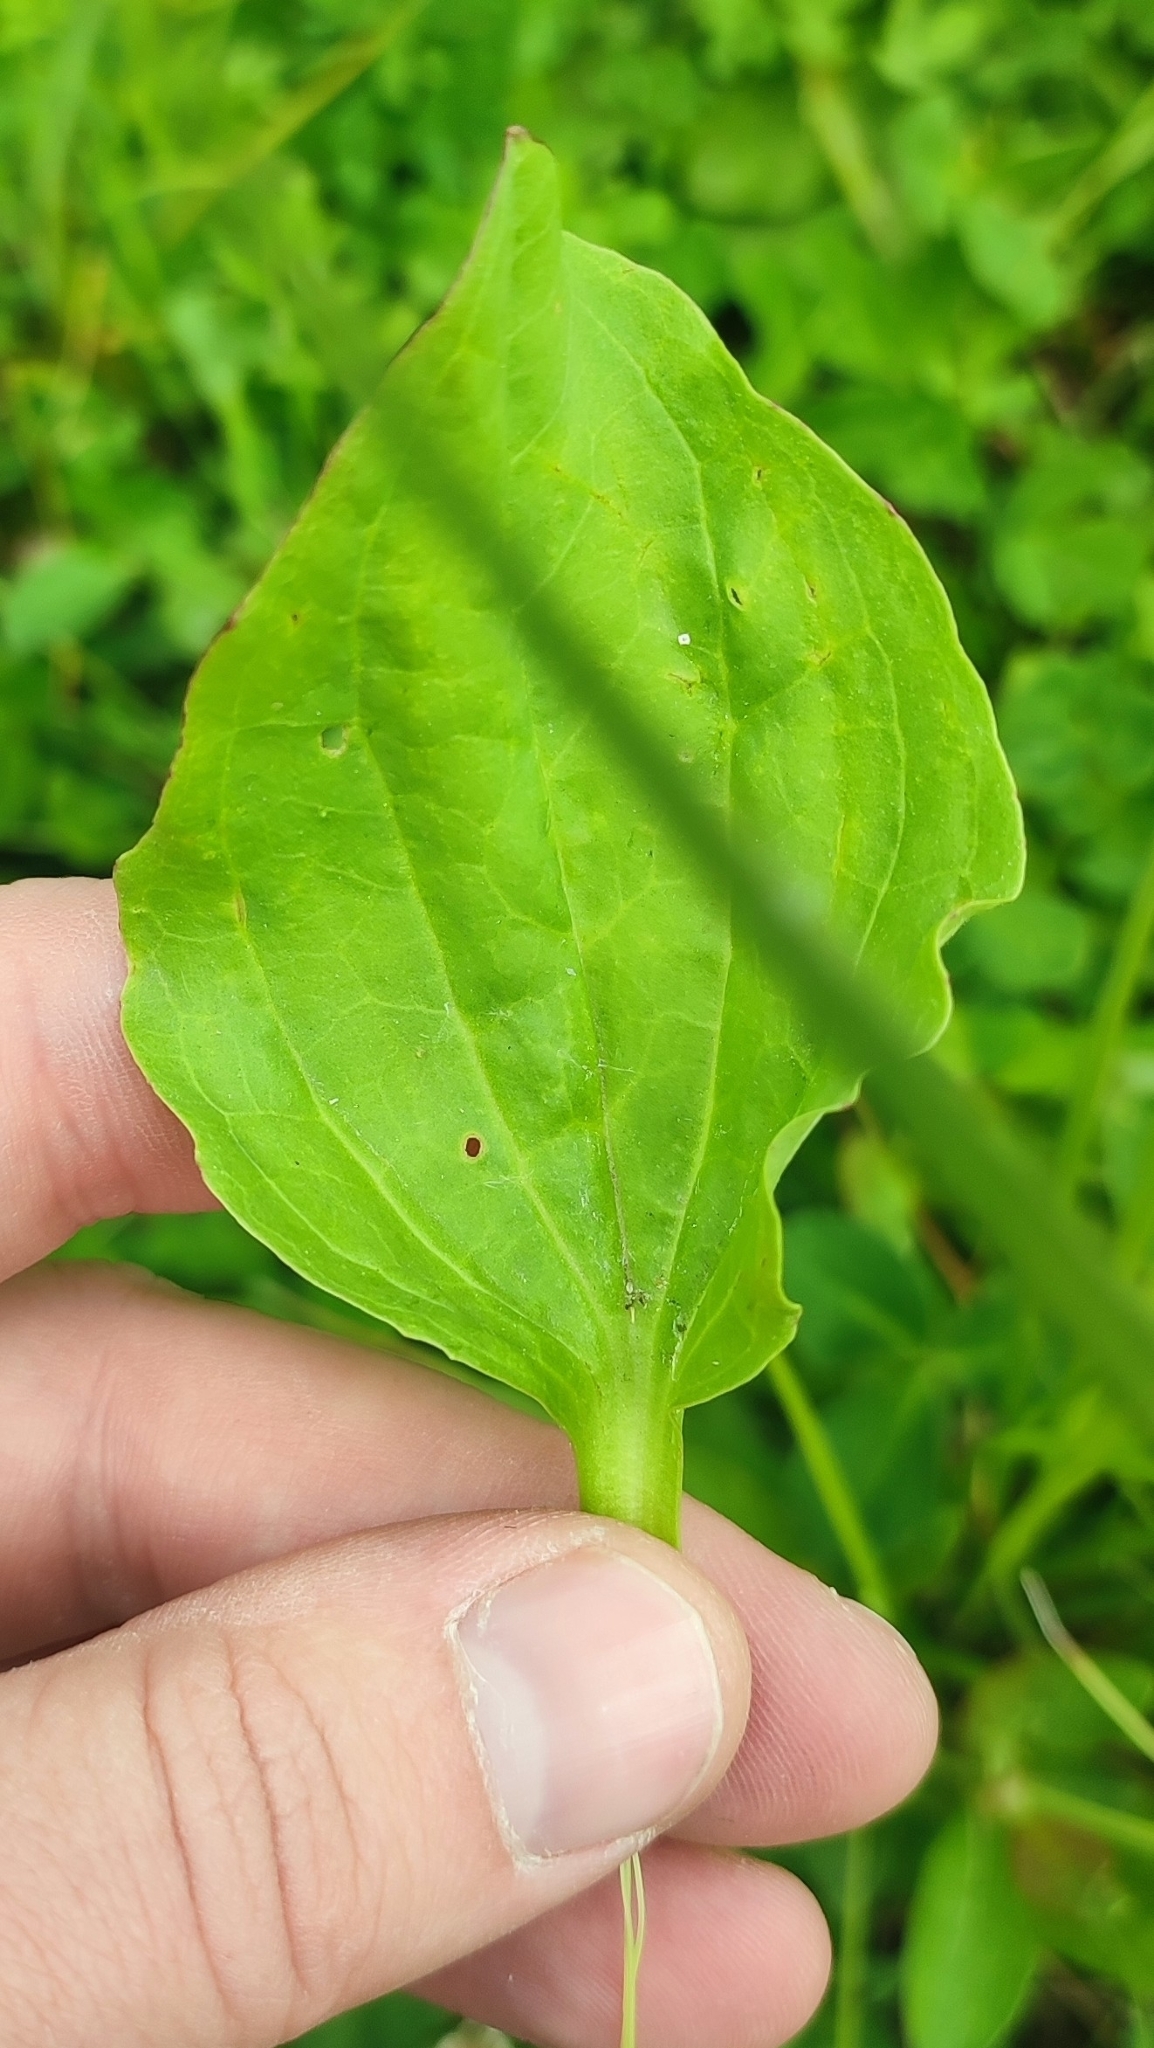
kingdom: Plantae
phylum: Tracheophyta
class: Magnoliopsida
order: Lamiales
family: Plantaginaceae
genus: Plantago
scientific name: Plantago major
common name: Common plantain
